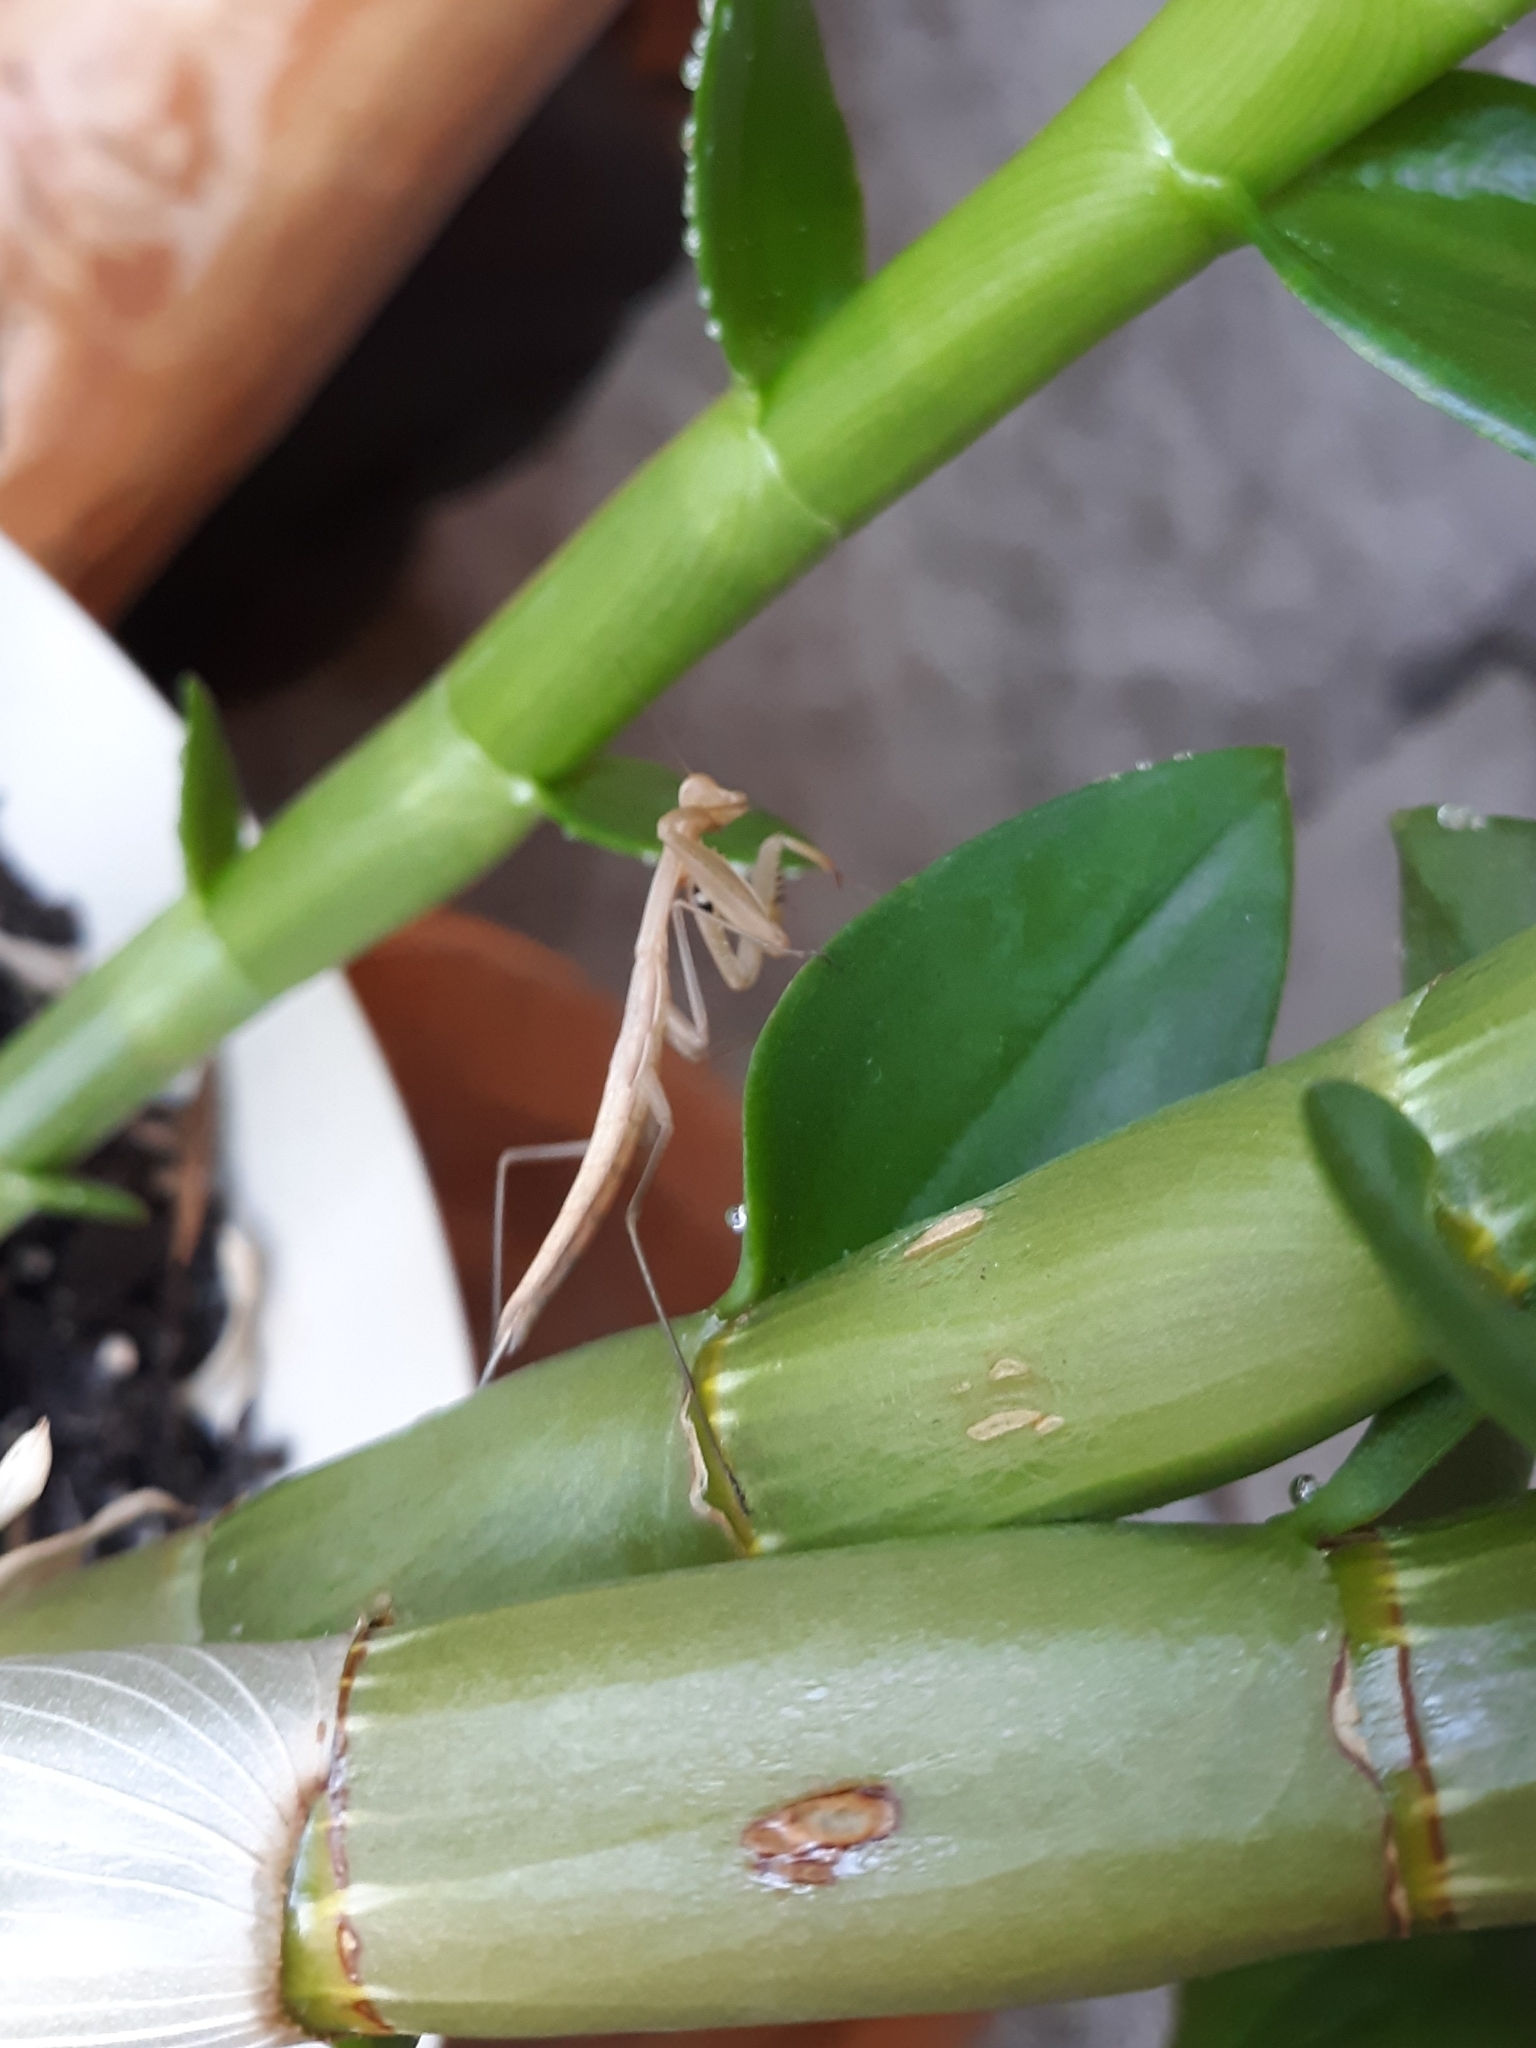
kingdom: Animalia
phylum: Arthropoda
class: Insecta
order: Mantodea
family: Mantidae
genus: Mantis
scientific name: Mantis religiosa
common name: Praying mantis
